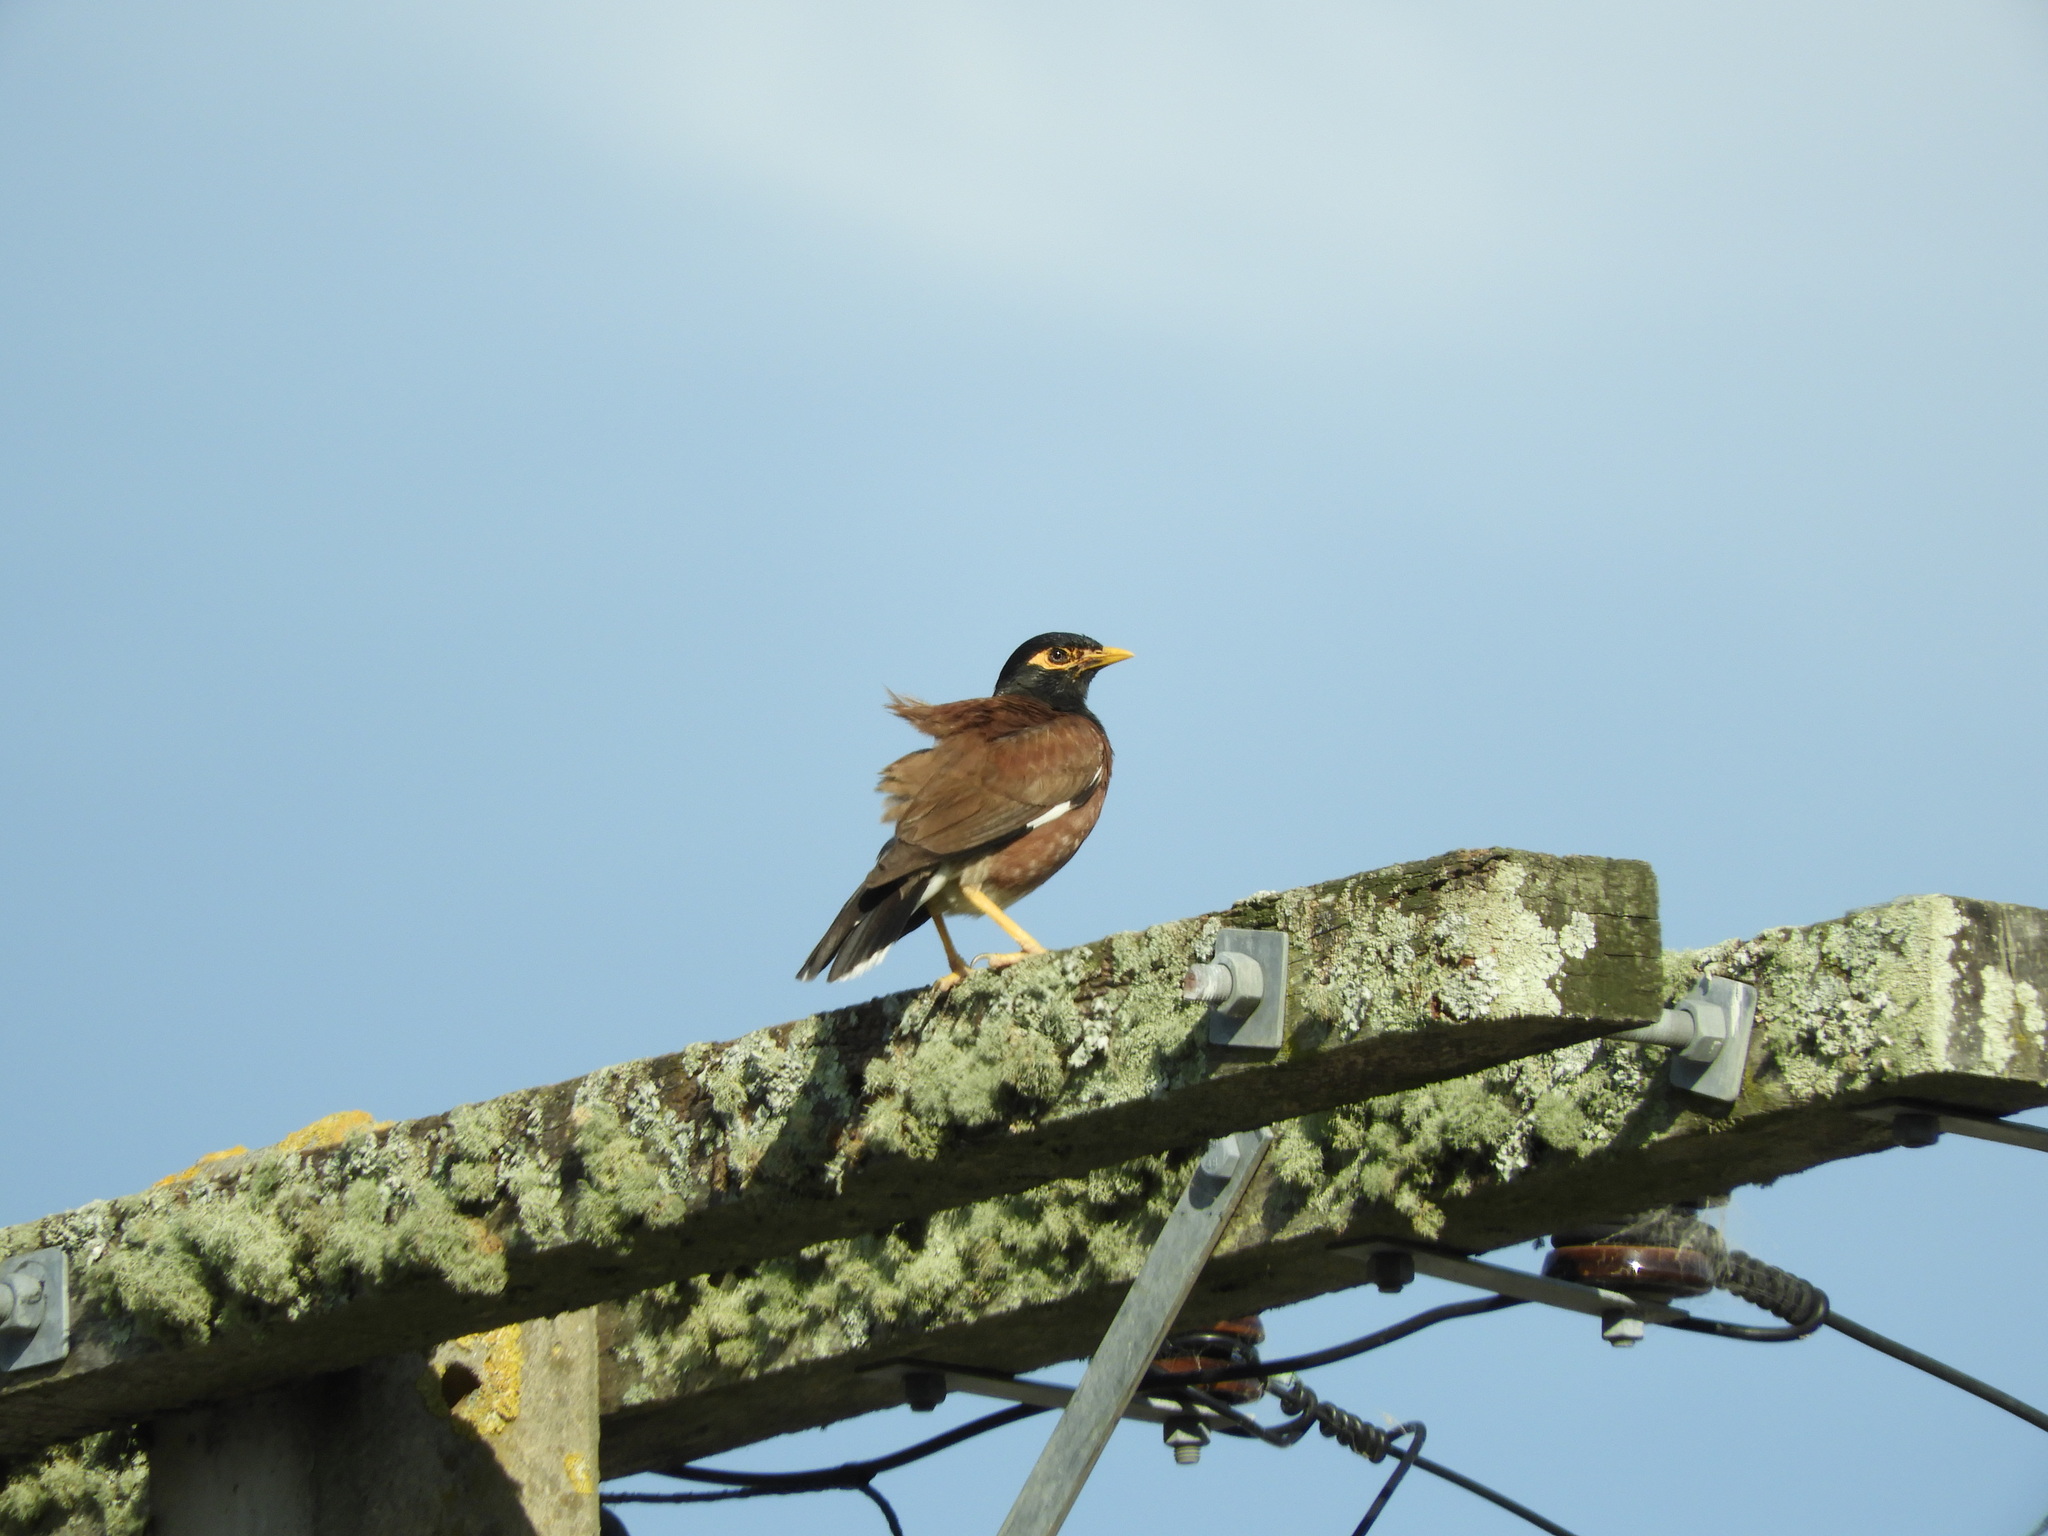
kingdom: Animalia
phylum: Chordata
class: Aves
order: Passeriformes
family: Sturnidae
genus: Acridotheres
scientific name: Acridotheres tristis
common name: Common myna
